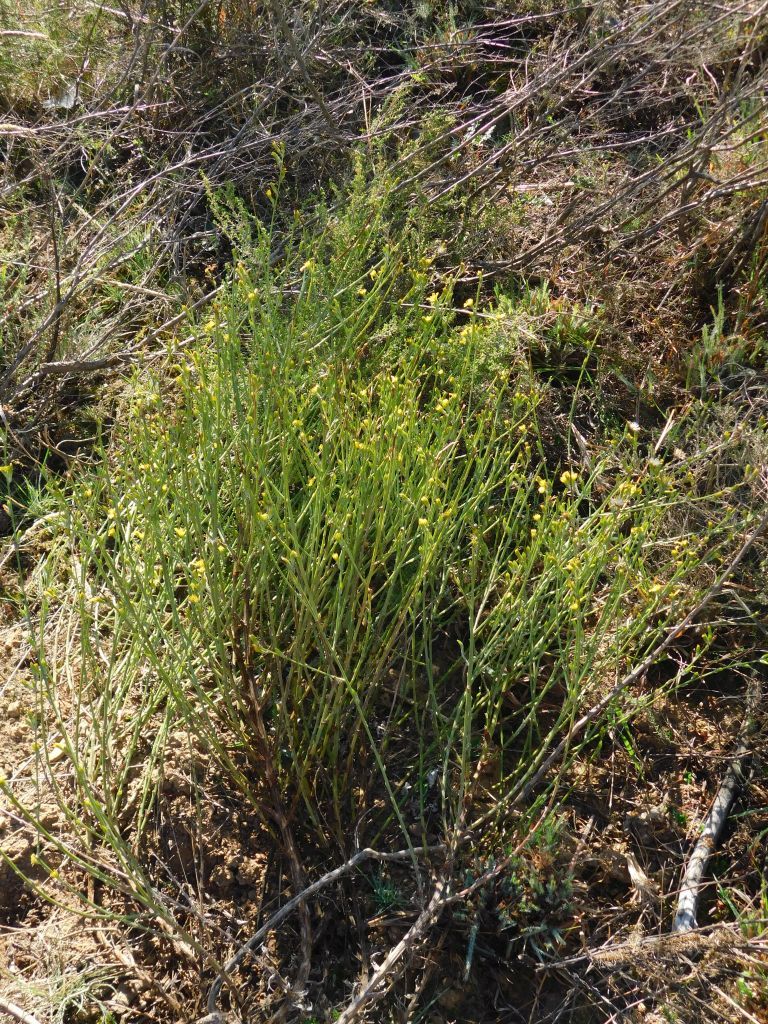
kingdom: Plantae
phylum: Tracheophyta
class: Magnoliopsida
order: Asterales
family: Asteraceae
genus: Senecio
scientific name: Senecio pubigerus
